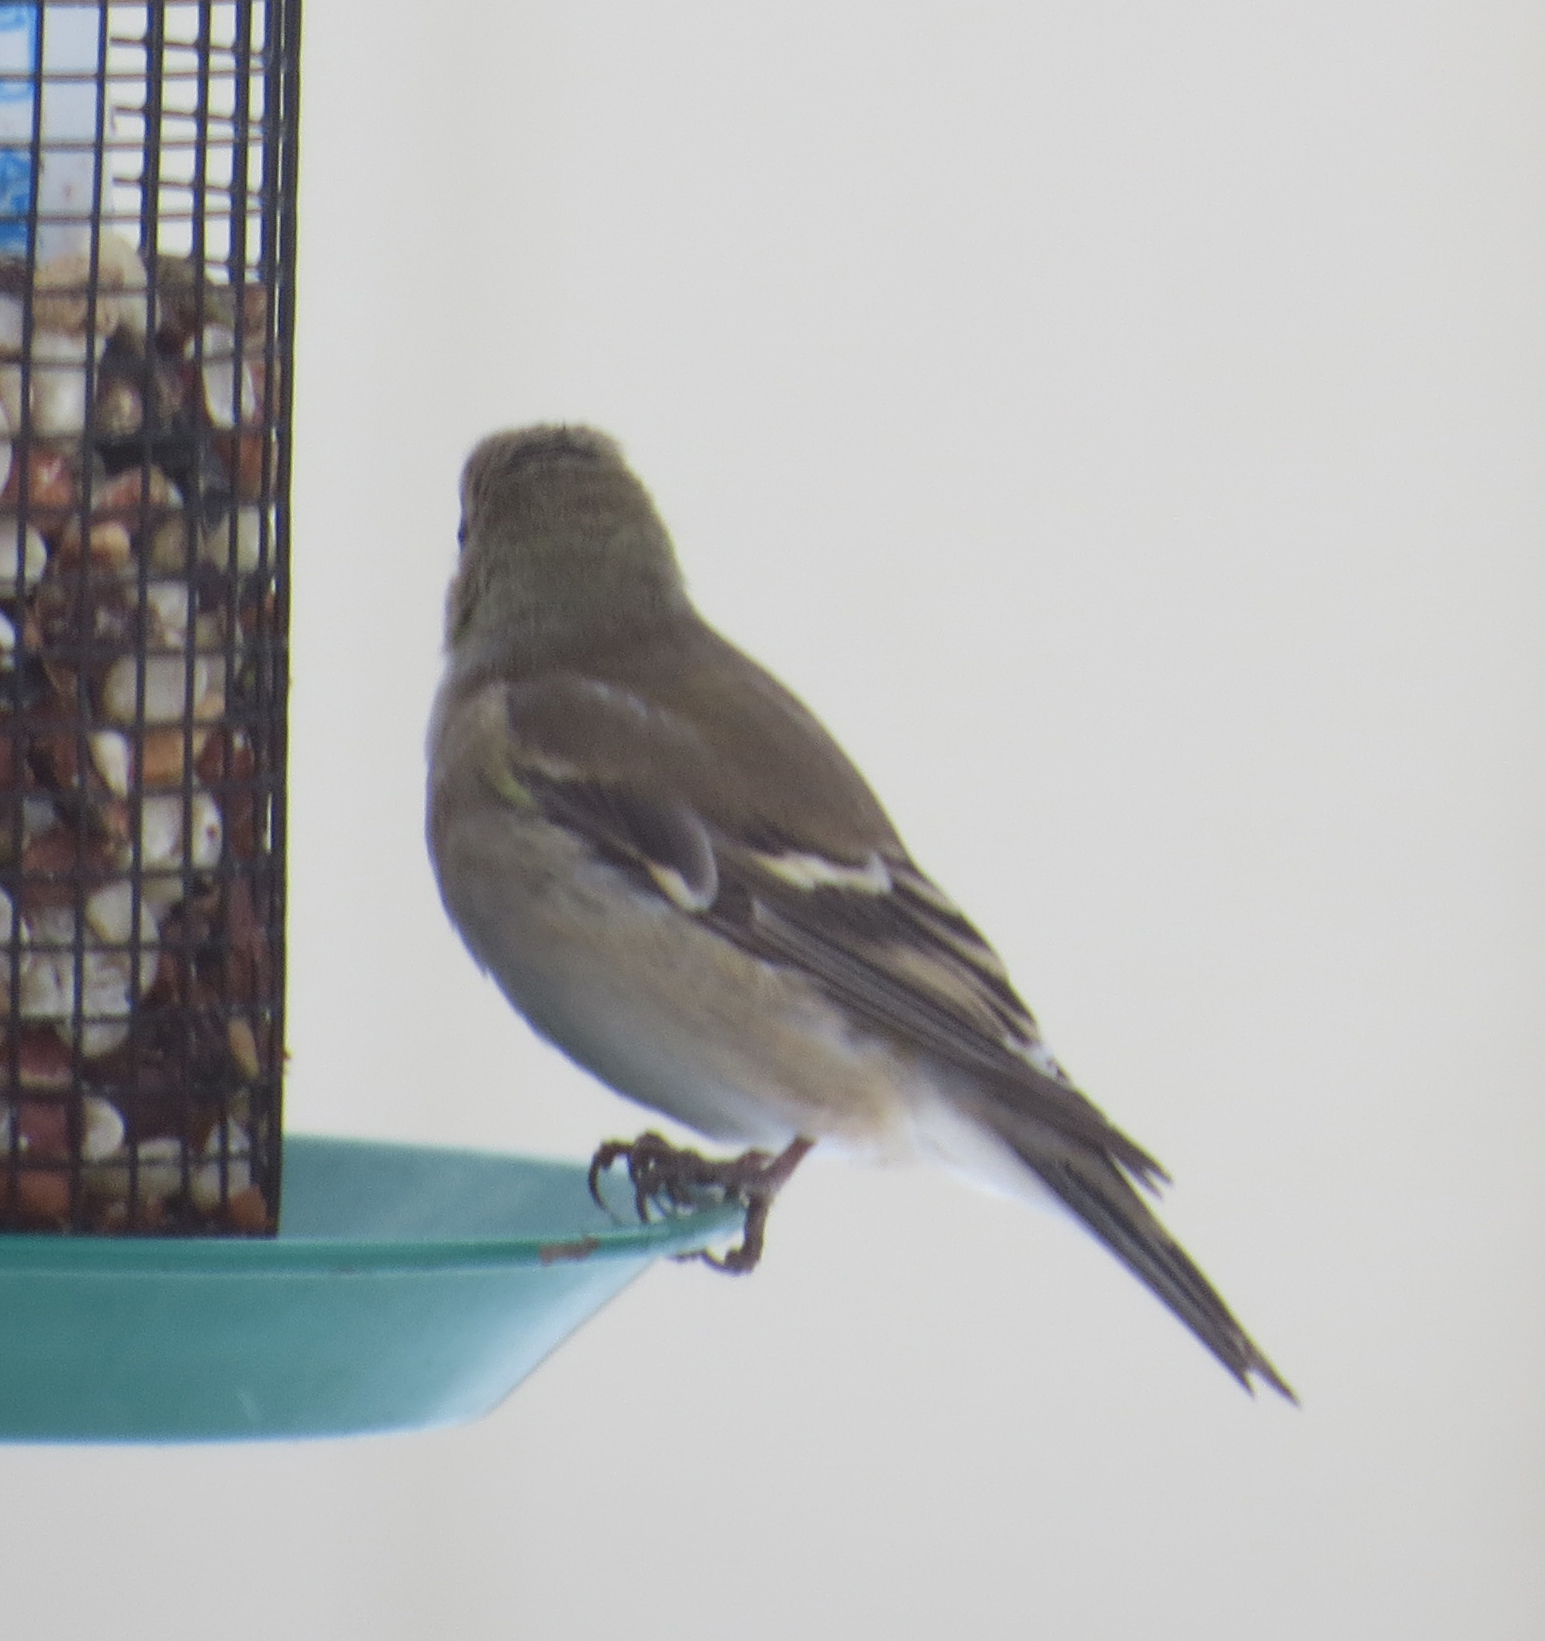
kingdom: Animalia
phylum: Chordata
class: Aves
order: Passeriformes
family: Fringillidae
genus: Spinus
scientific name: Spinus tristis
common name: American goldfinch
